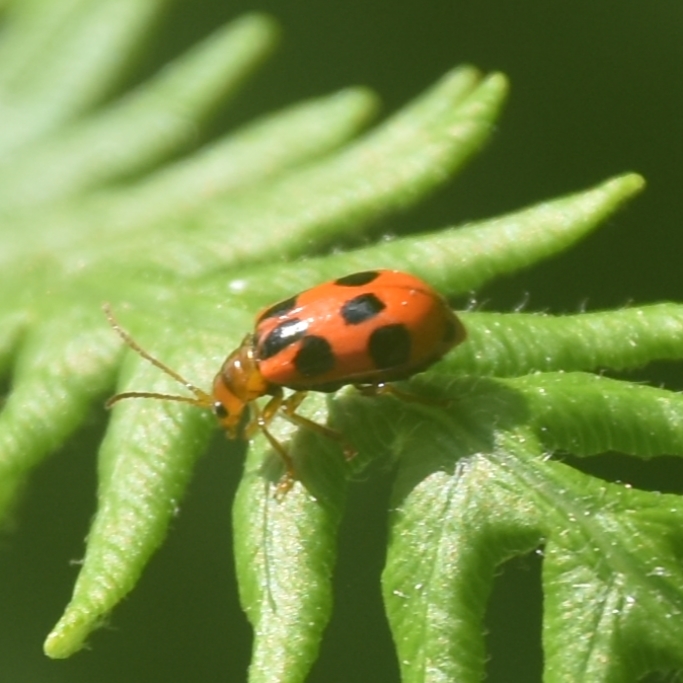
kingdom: Animalia
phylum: Arthropoda
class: Insecta
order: Coleoptera
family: Chrysomelidae
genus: Paridea
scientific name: Paridea
